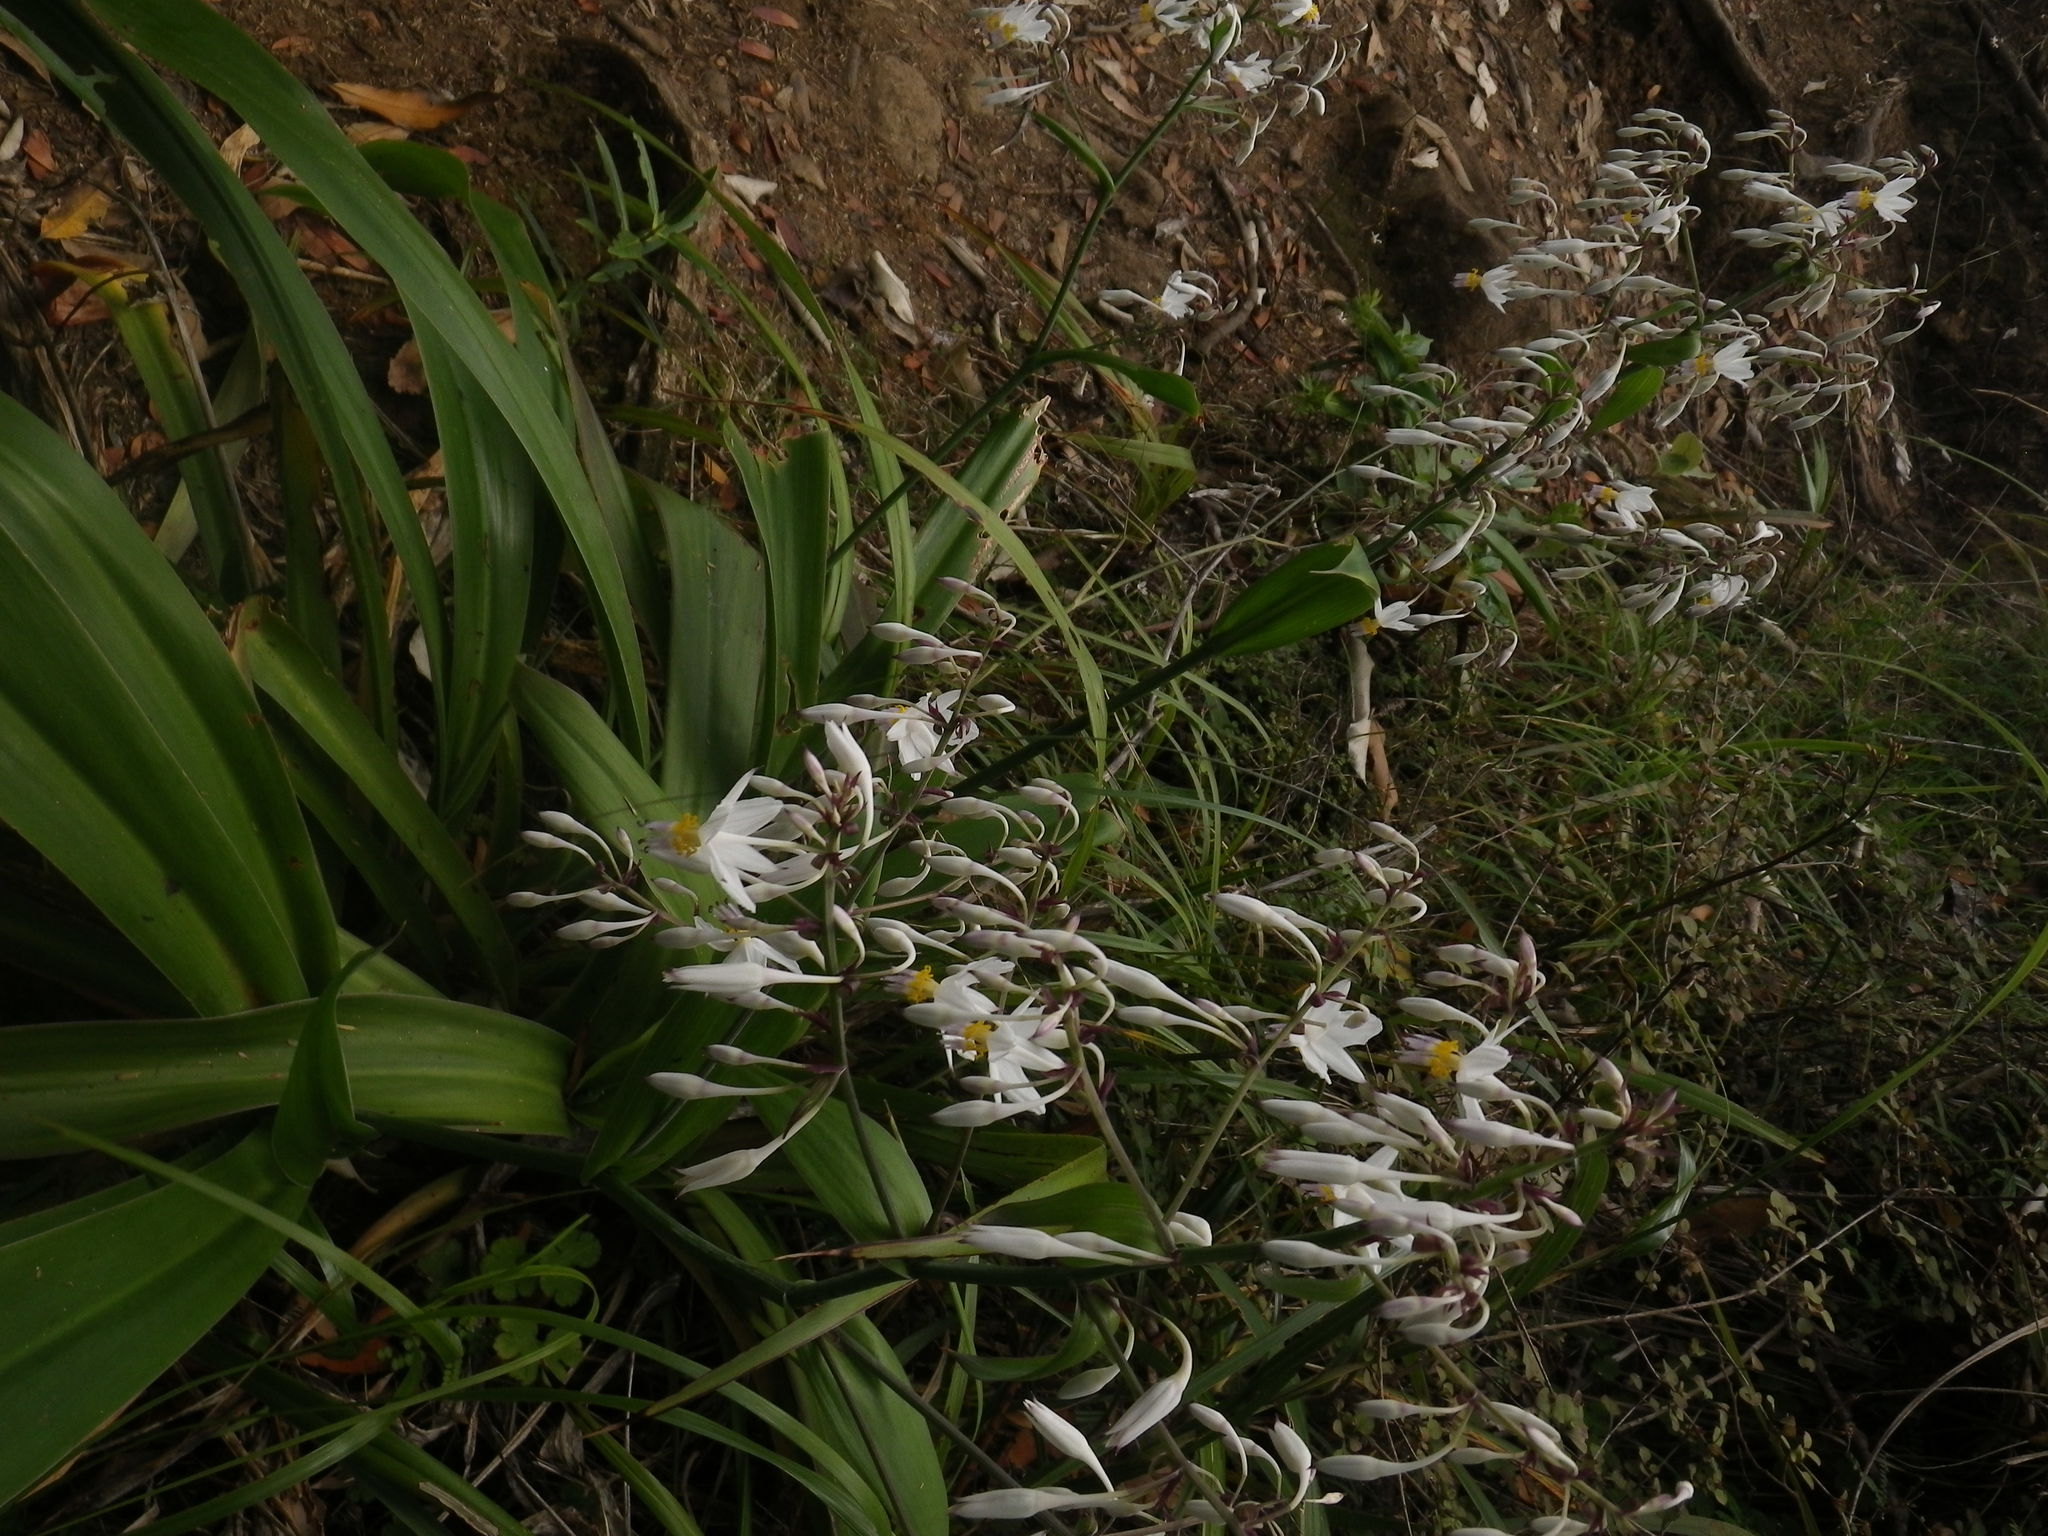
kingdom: Plantae
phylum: Tracheophyta
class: Liliopsida
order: Asparagales
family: Asparagaceae
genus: Arthropodium
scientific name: Arthropodium cirratum
